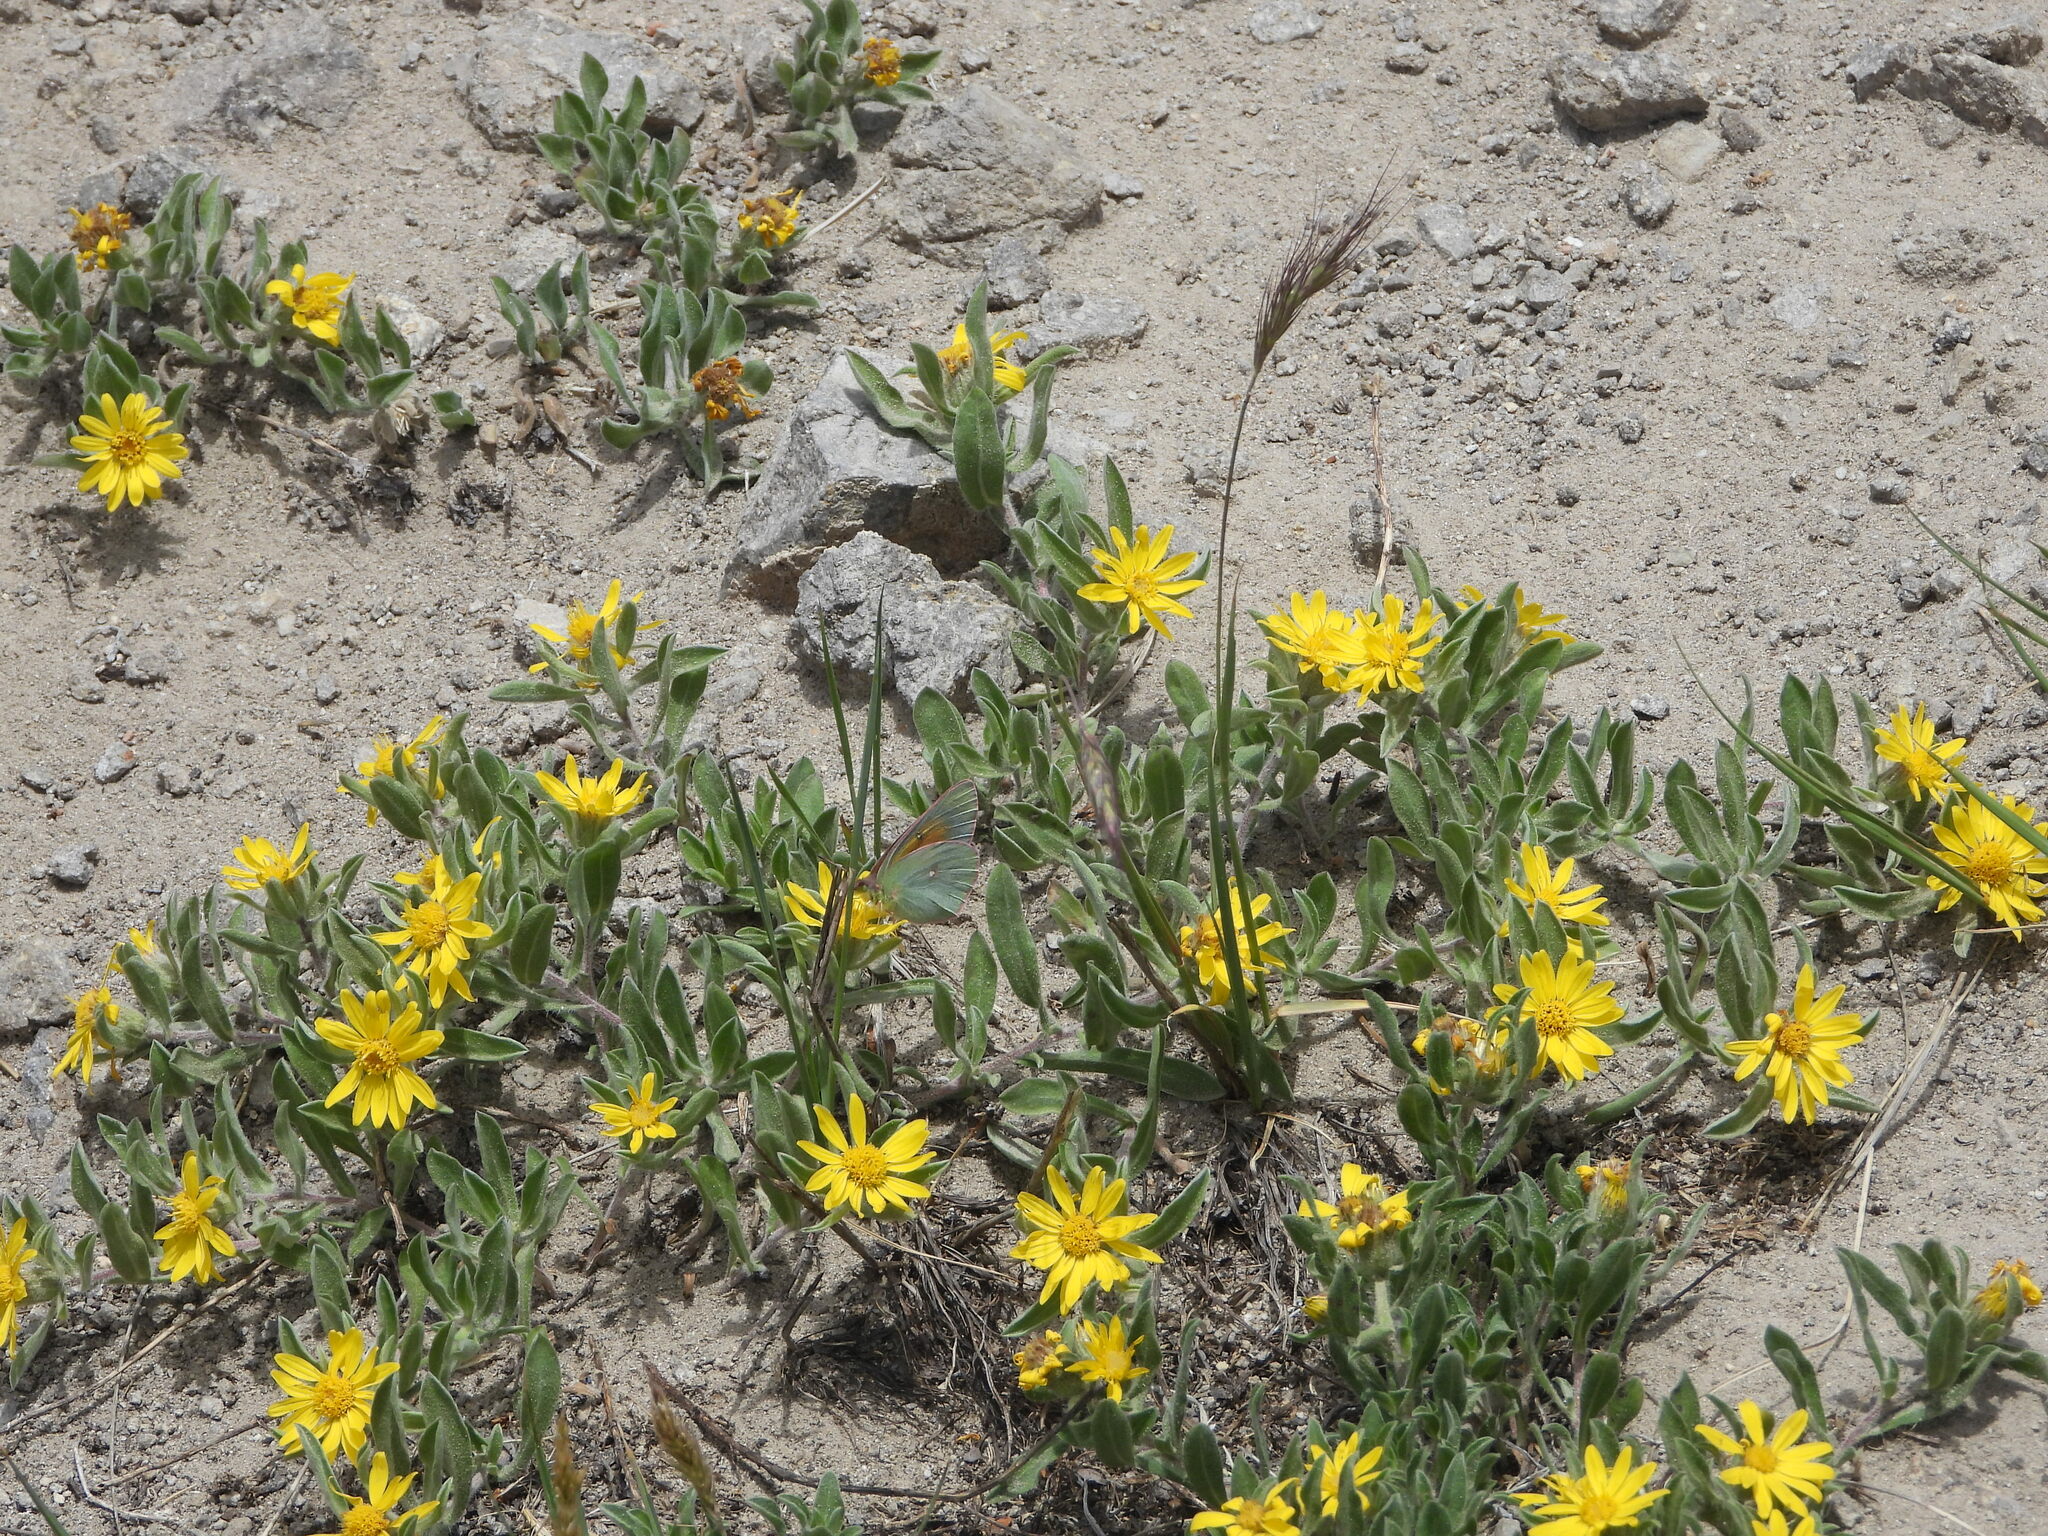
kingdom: Animalia
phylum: Arthropoda
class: Insecta
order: Lepidoptera
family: Pieridae
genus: Colias
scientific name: Colias meadii
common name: Mead's sulphur
